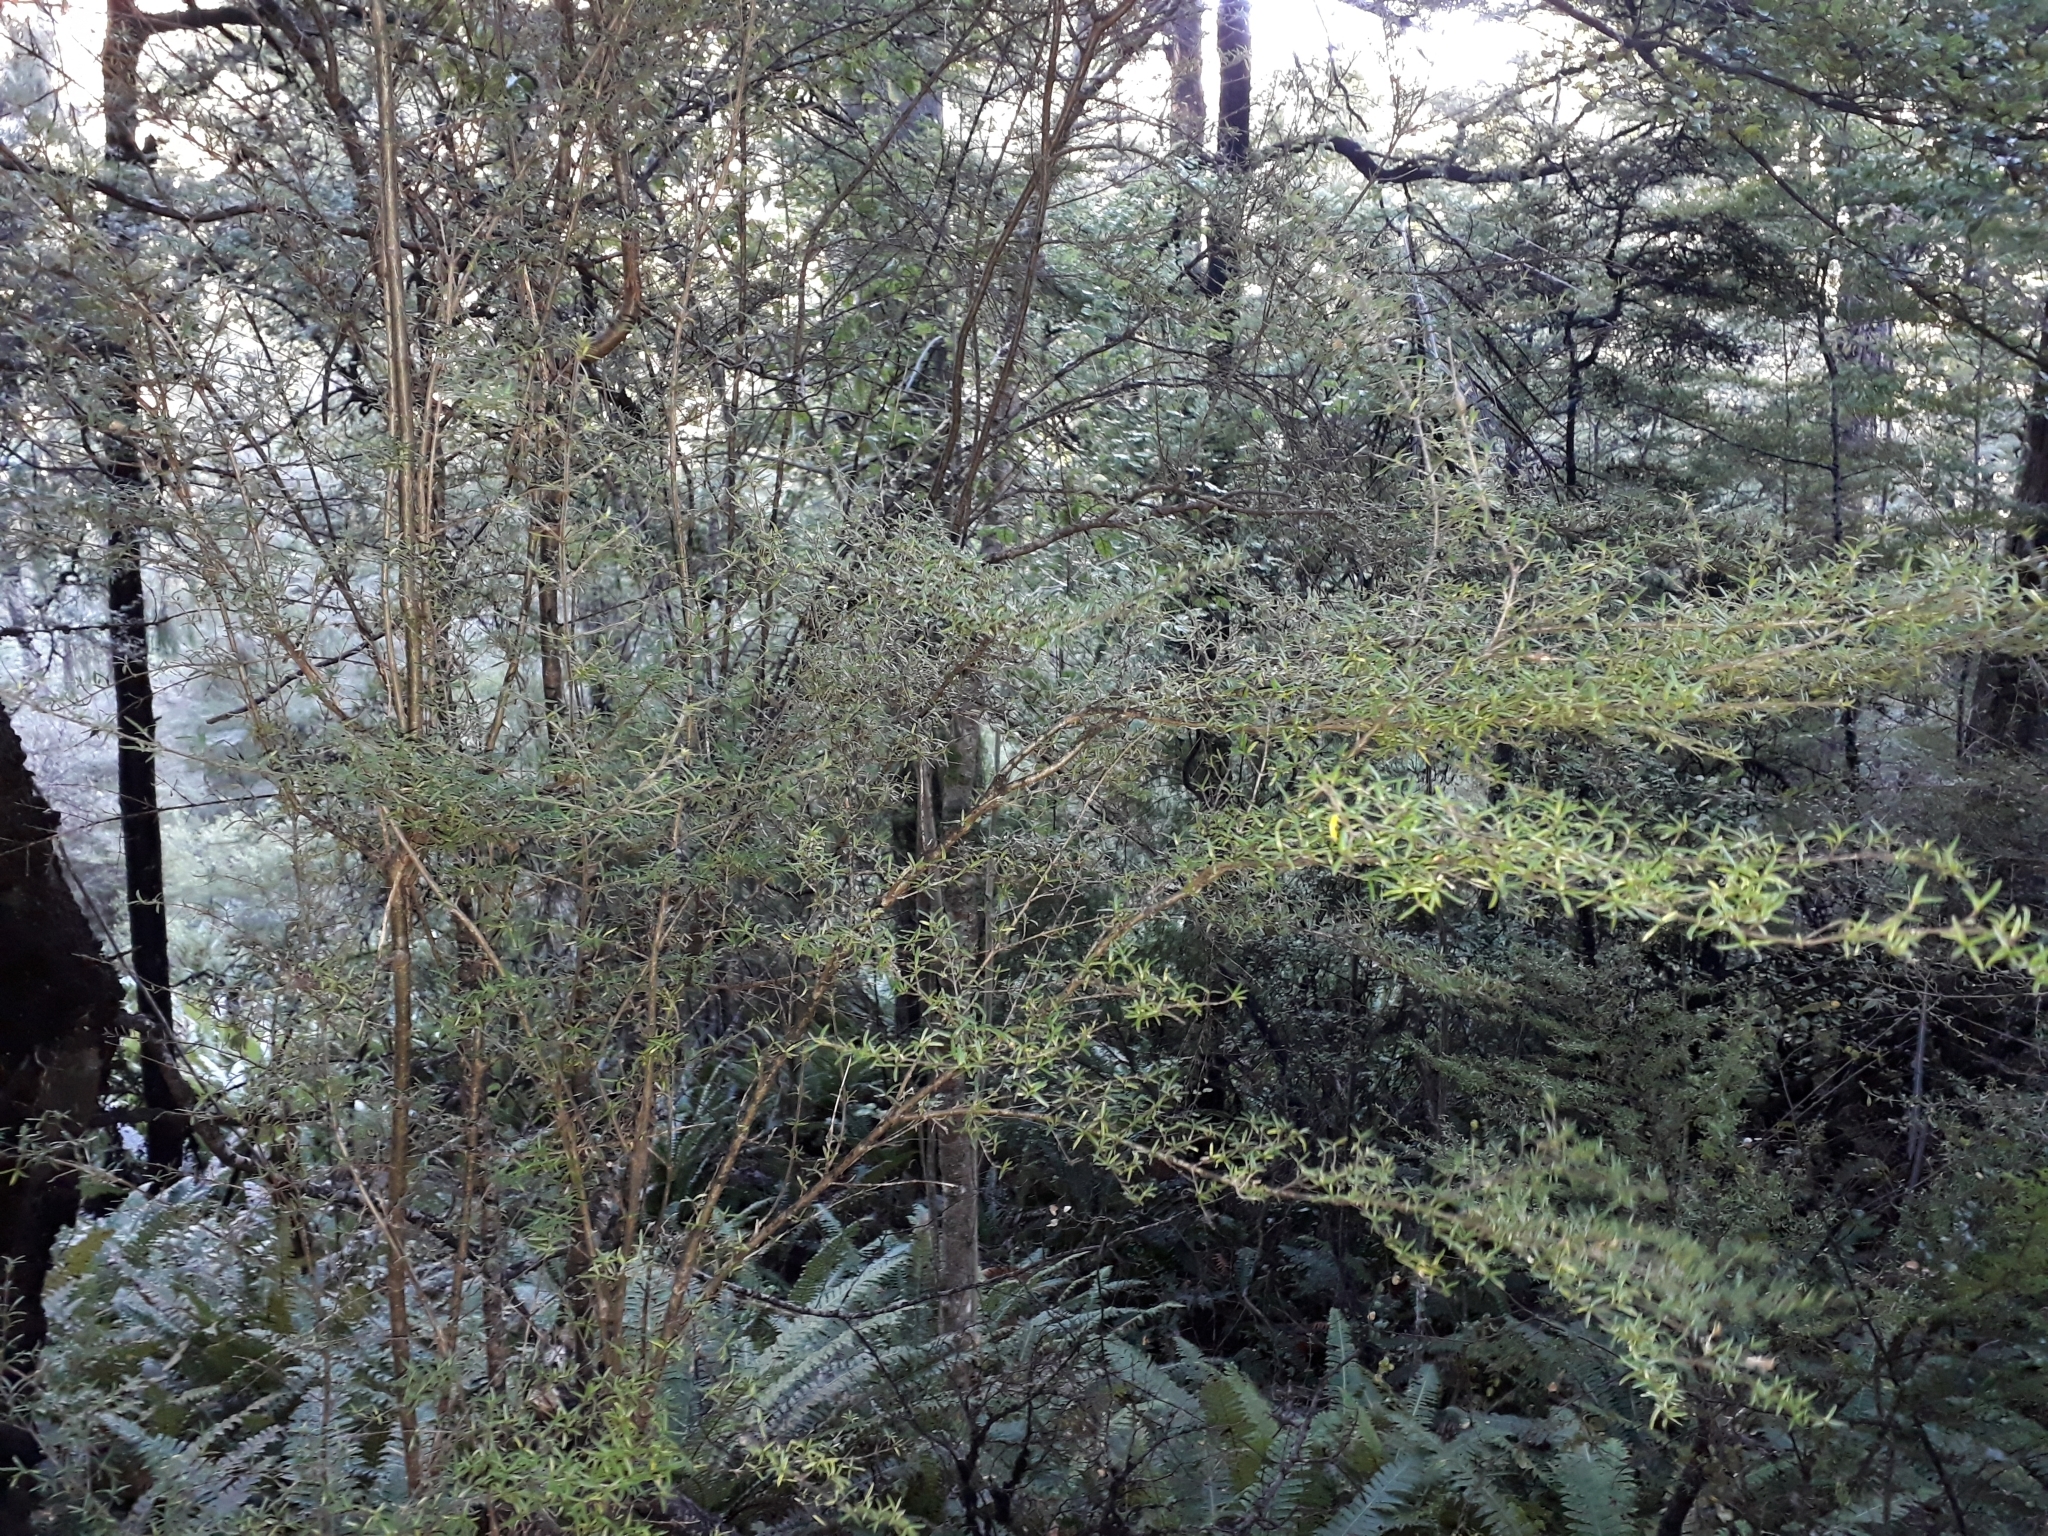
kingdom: Plantae
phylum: Tracheophyta
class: Magnoliopsida
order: Gentianales
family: Rubiaceae
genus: Coprosma
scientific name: Coprosma microcarpa
